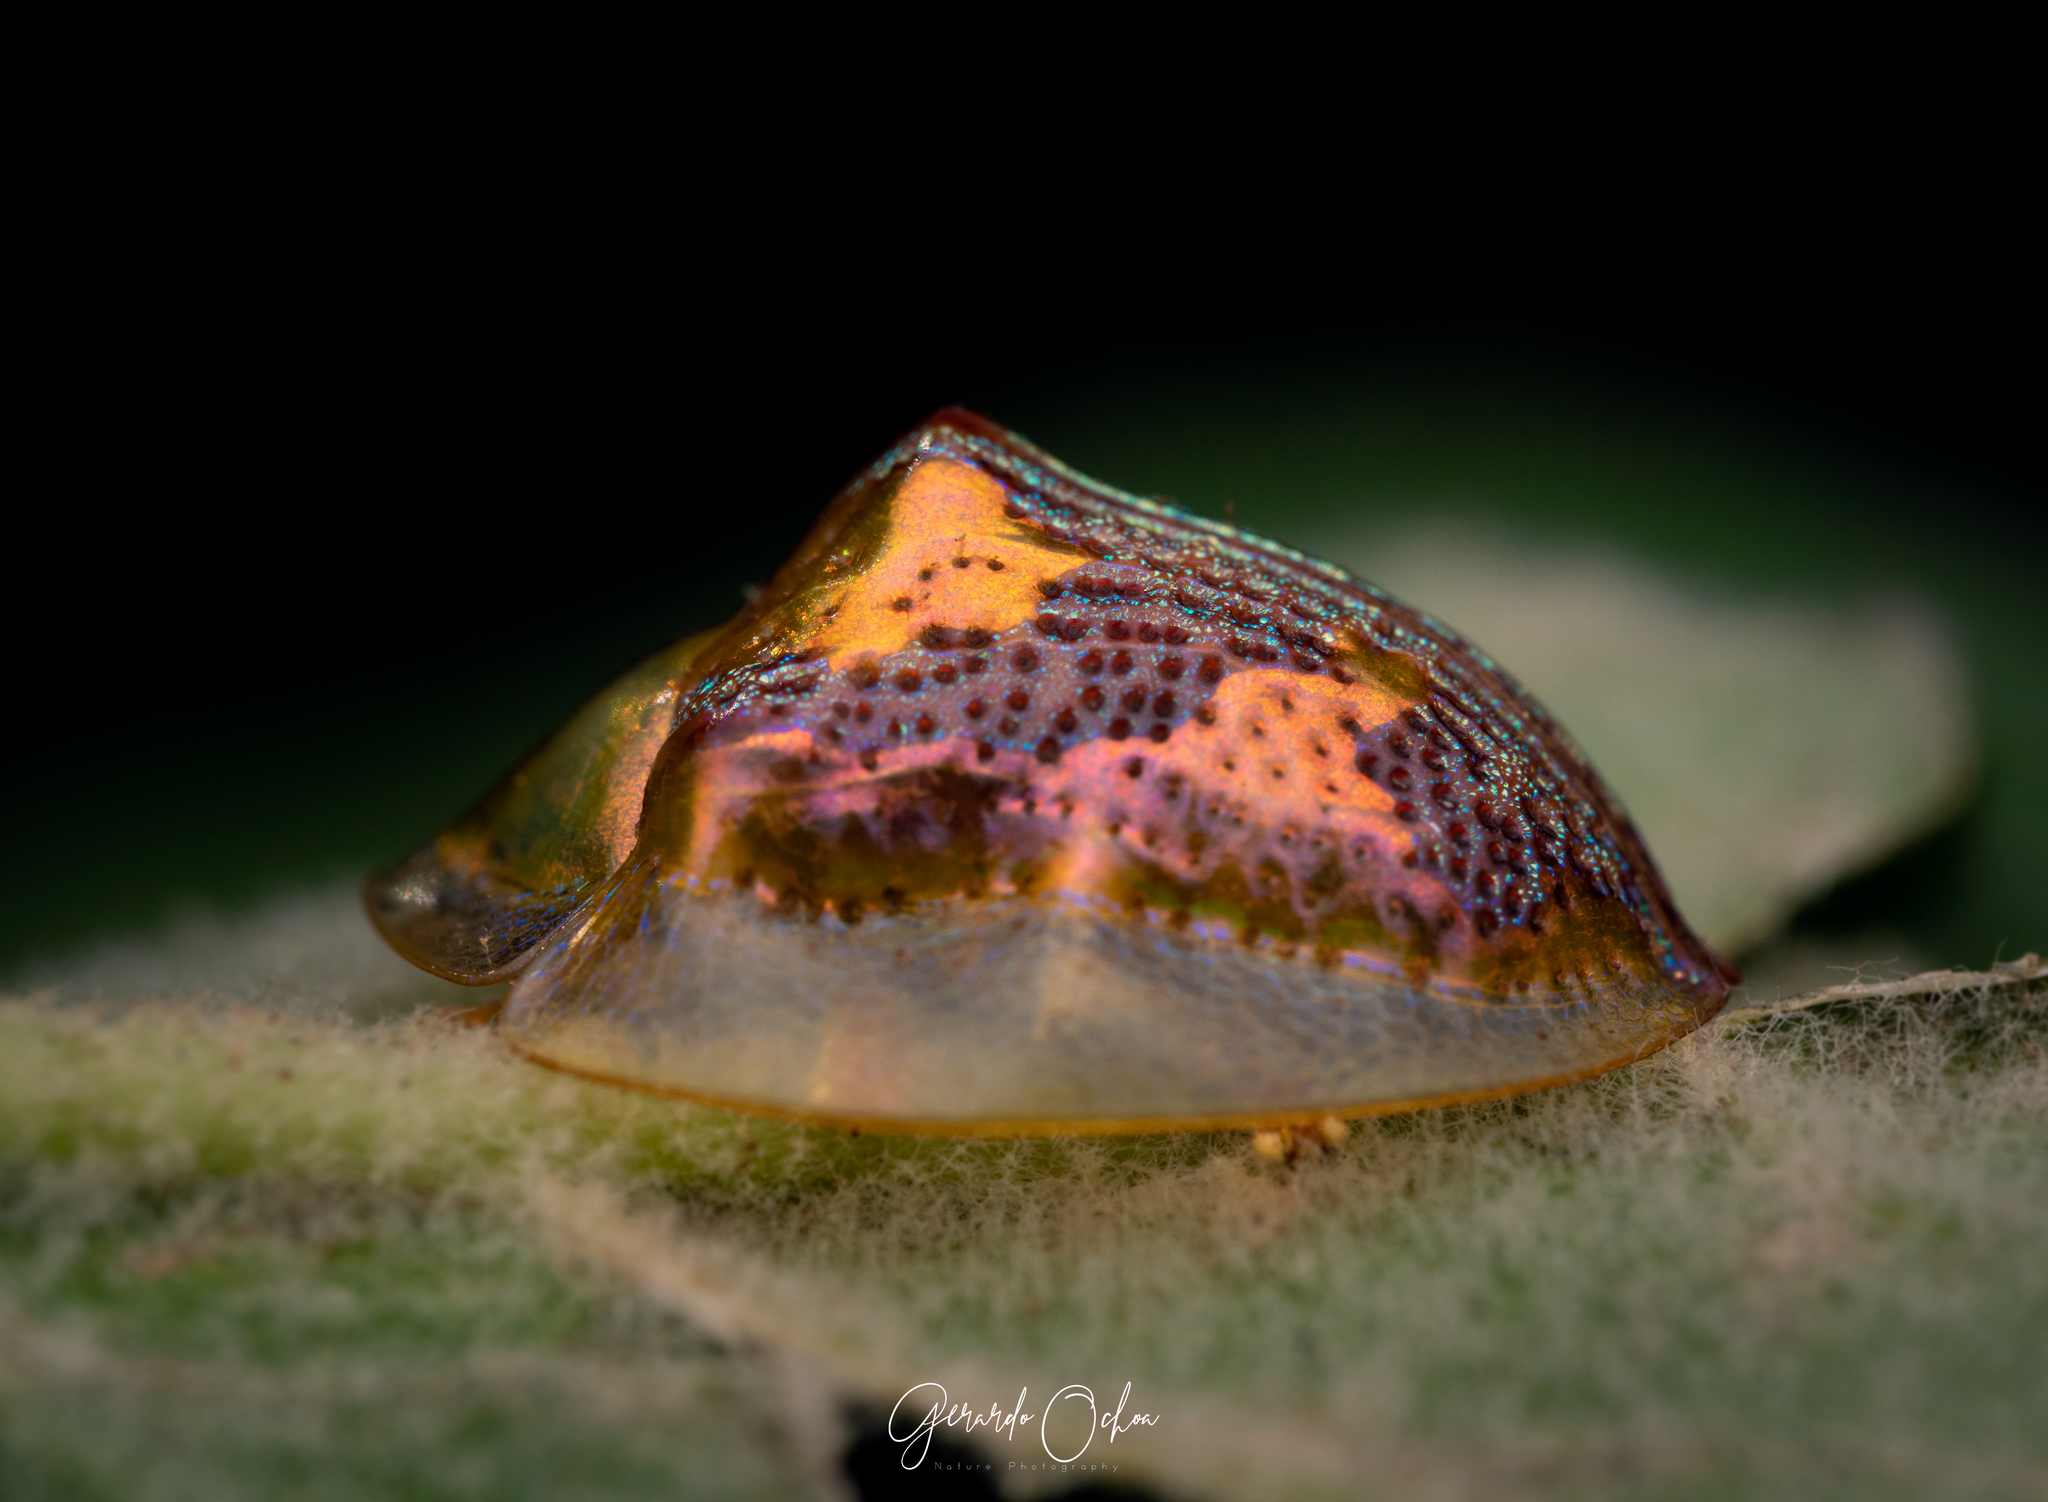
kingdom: Animalia
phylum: Arthropoda
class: Insecta
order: Coleoptera
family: Chrysomelidae
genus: Coptocycla
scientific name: Coptocycla leprosa
